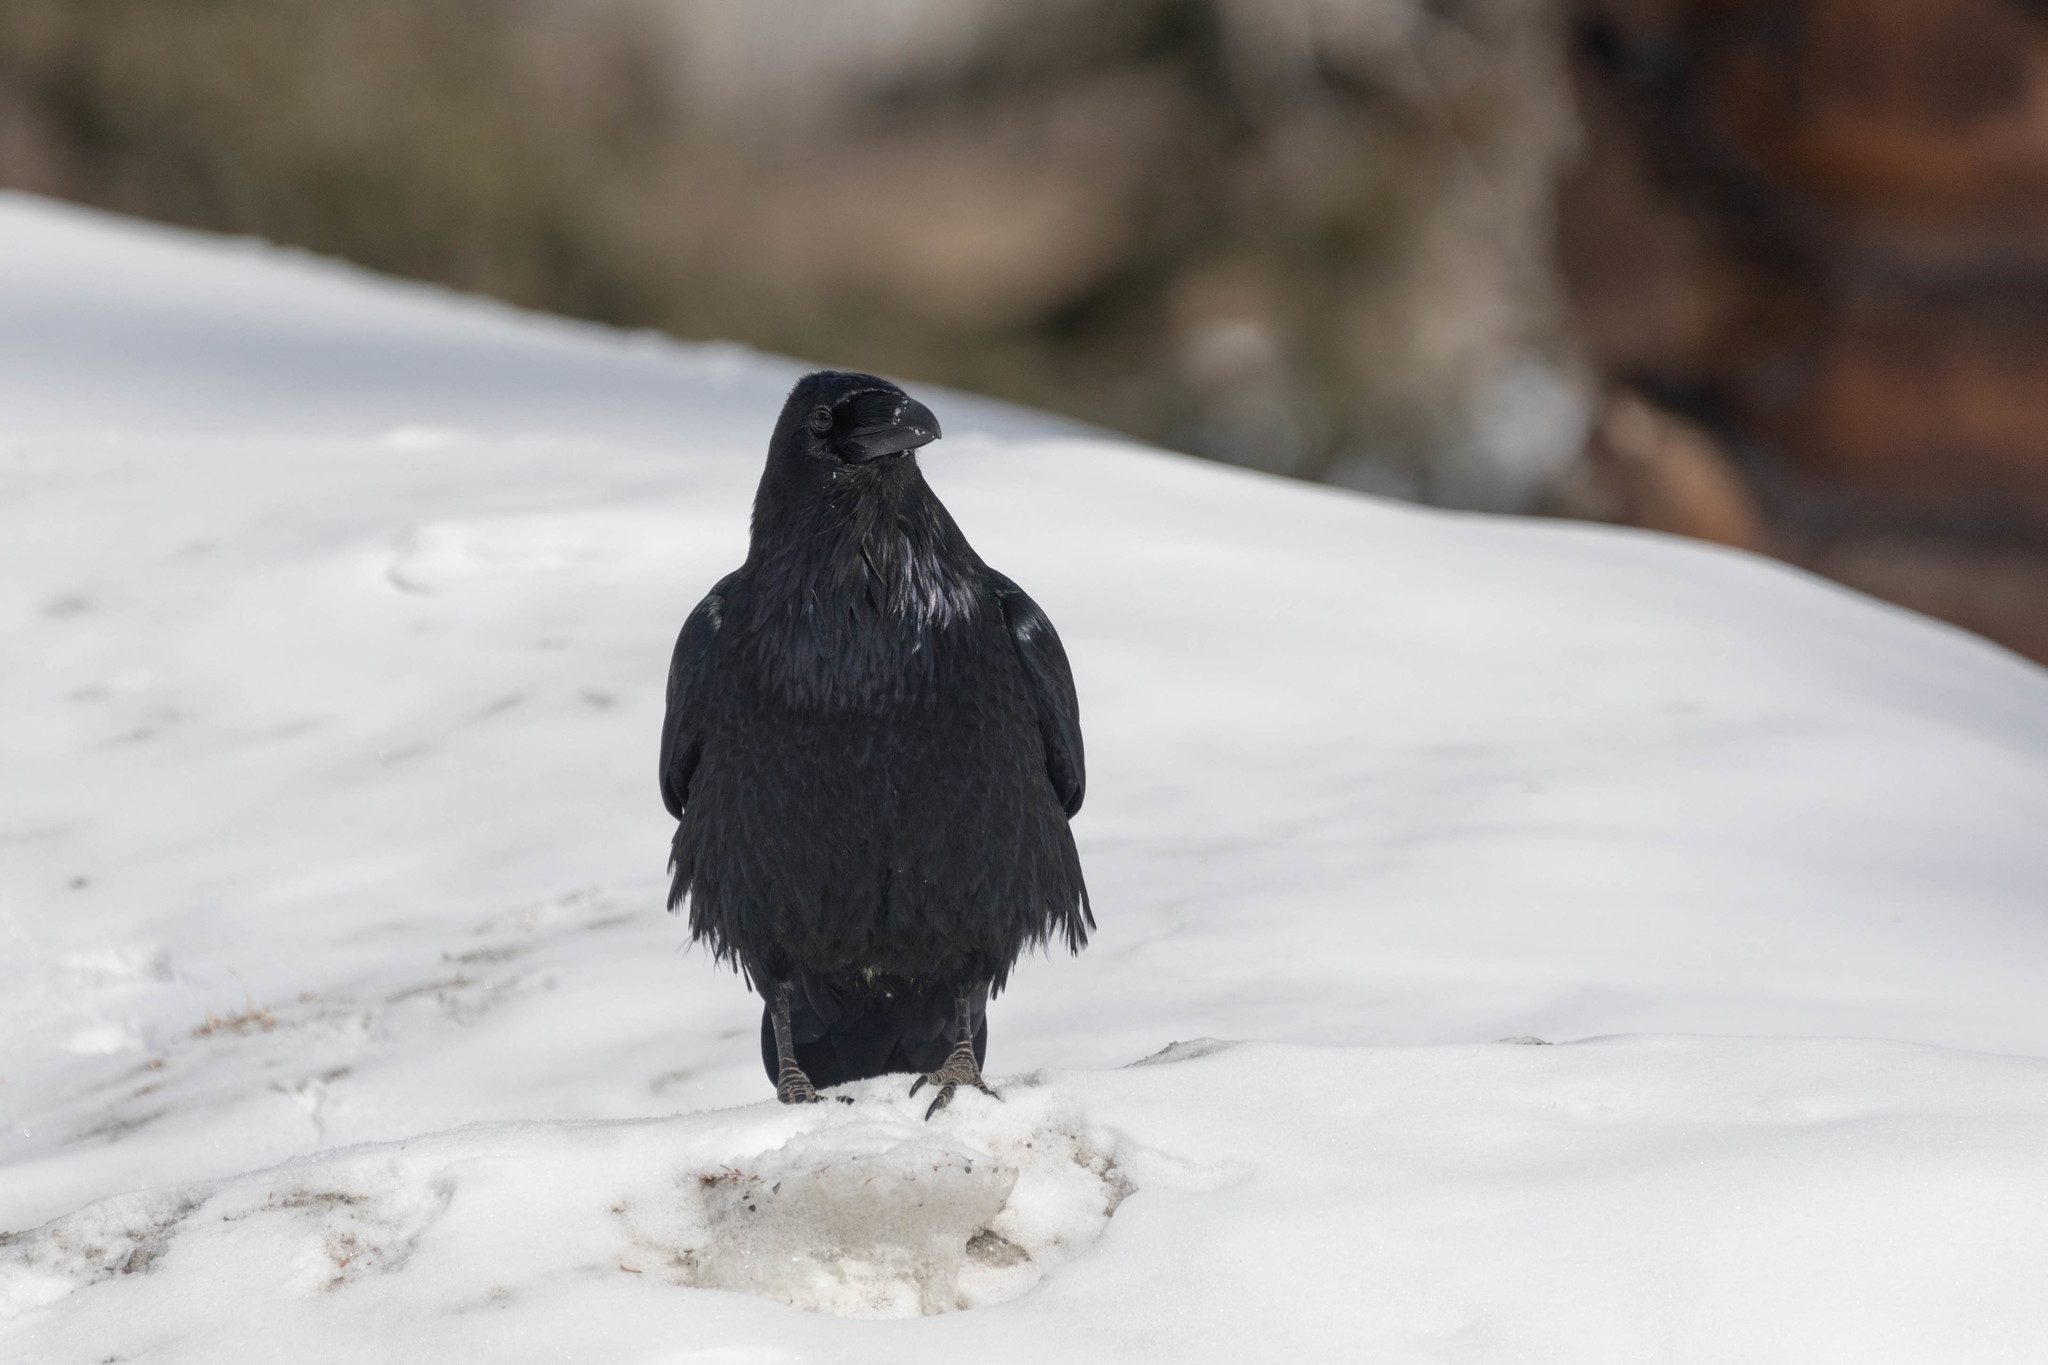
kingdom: Animalia
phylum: Chordata
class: Aves
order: Passeriformes
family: Corvidae
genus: Corvus
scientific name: Corvus corax
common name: Common raven
